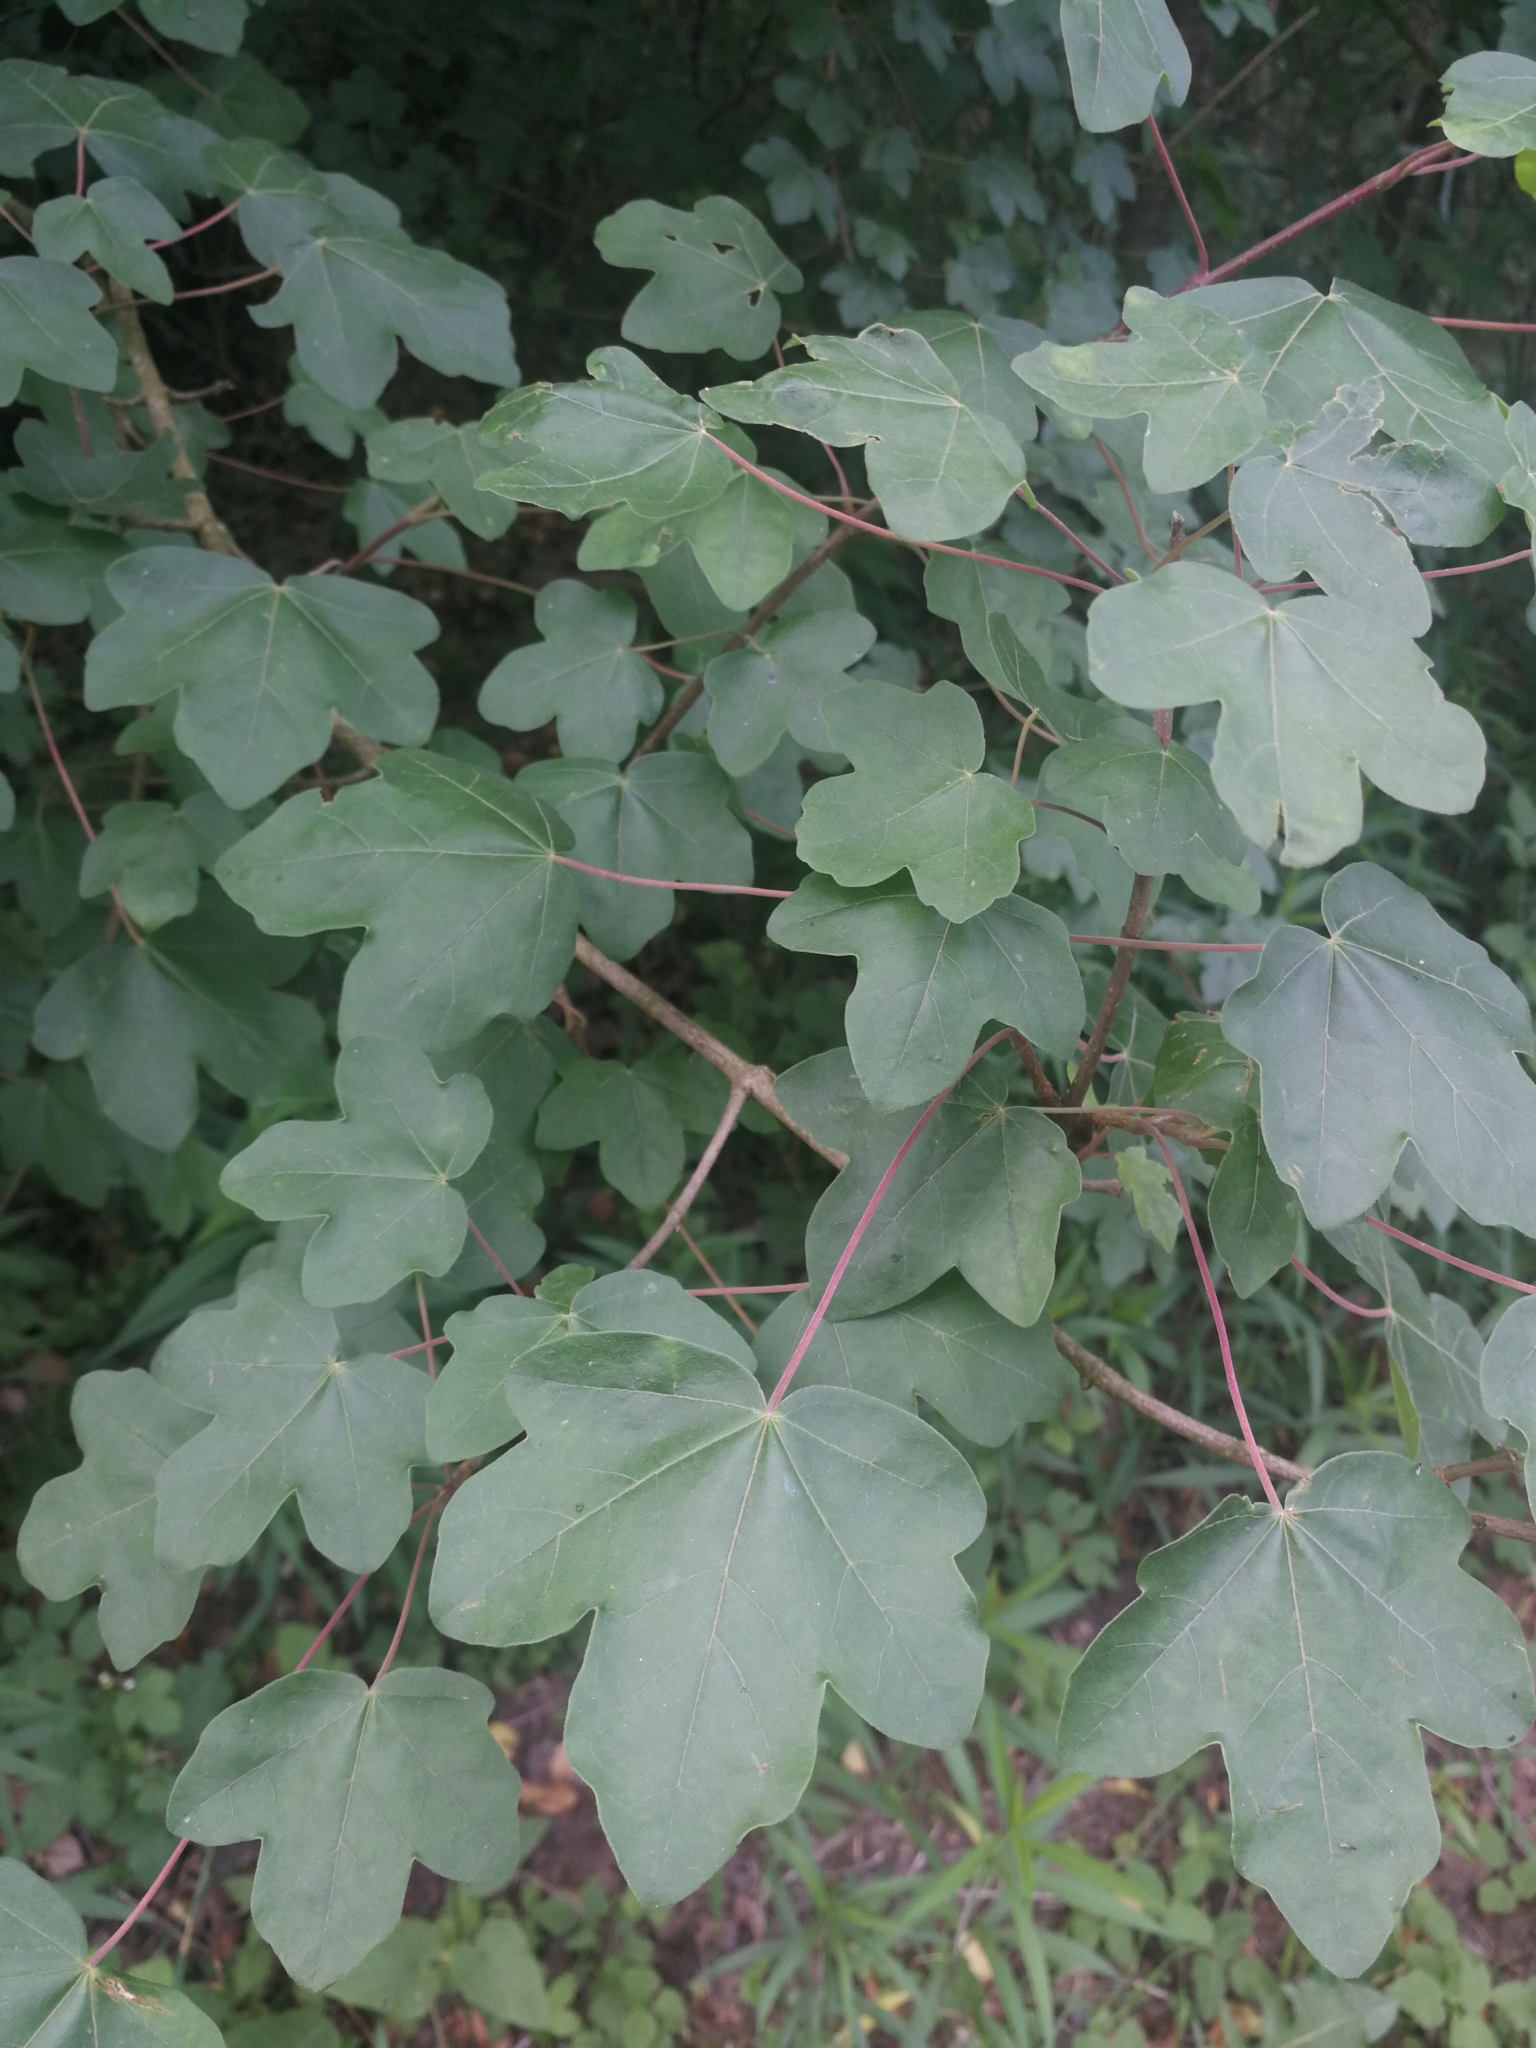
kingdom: Plantae
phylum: Tracheophyta
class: Magnoliopsida
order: Sapindales
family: Sapindaceae
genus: Acer
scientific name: Acer campestre
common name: Field maple
